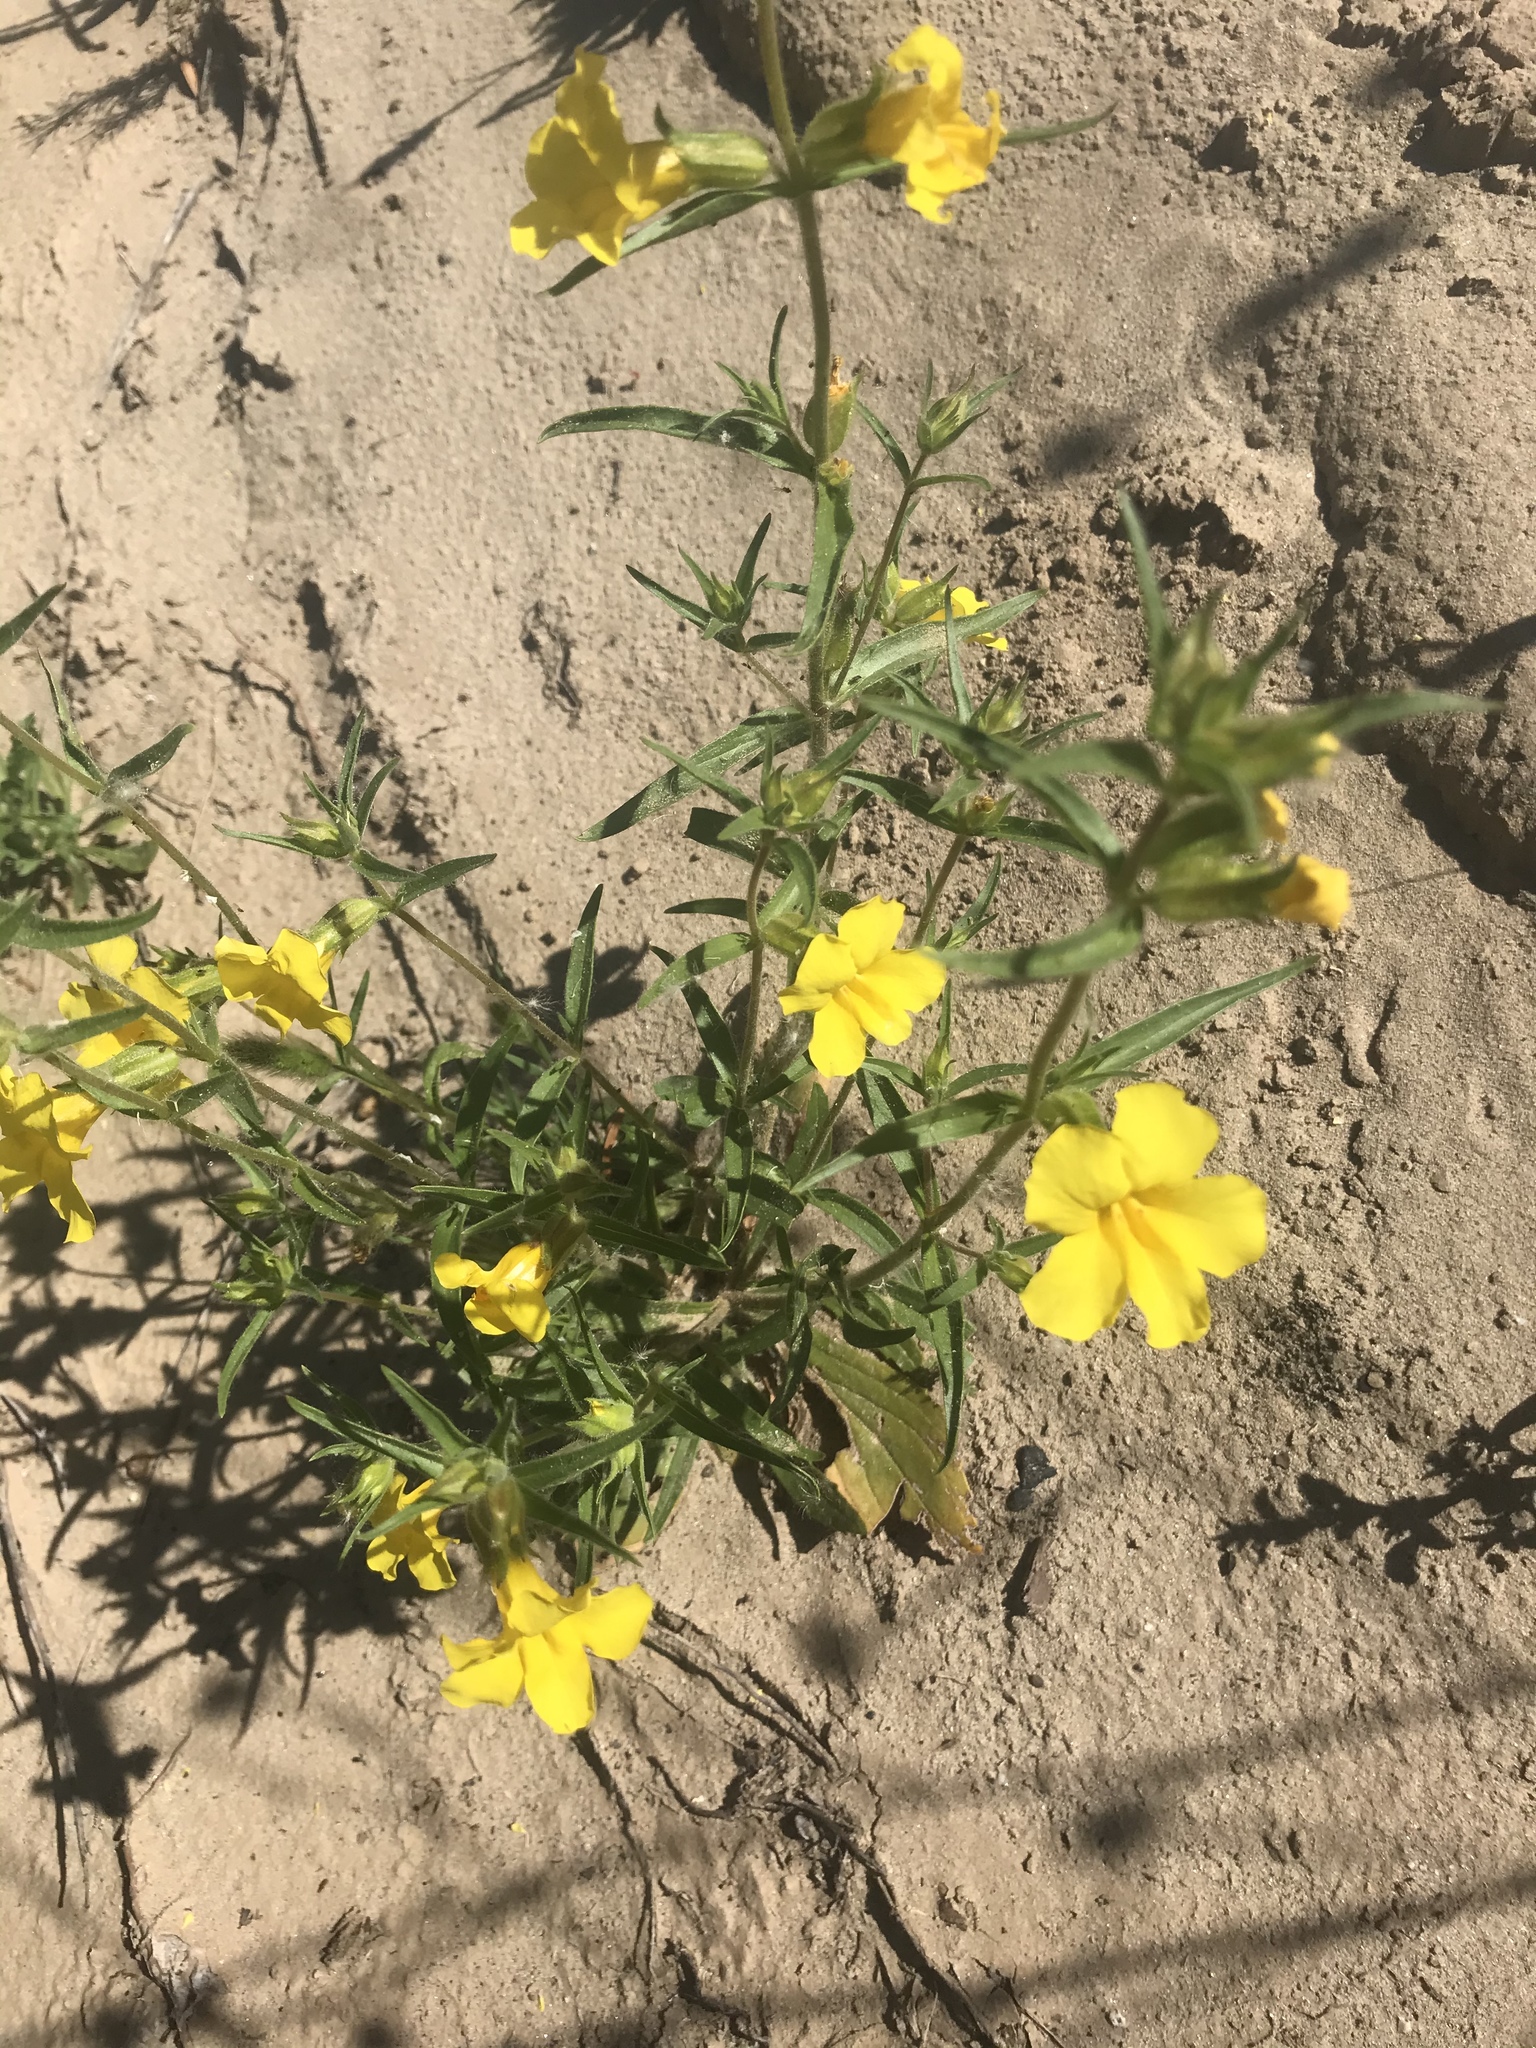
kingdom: Plantae
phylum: Tracheophyta
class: Magnoliopsida
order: Lamiales
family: Phrymaceae
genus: Diplacus
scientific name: Diplacus brevipes
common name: Wide-throat yellow monkey-flower
